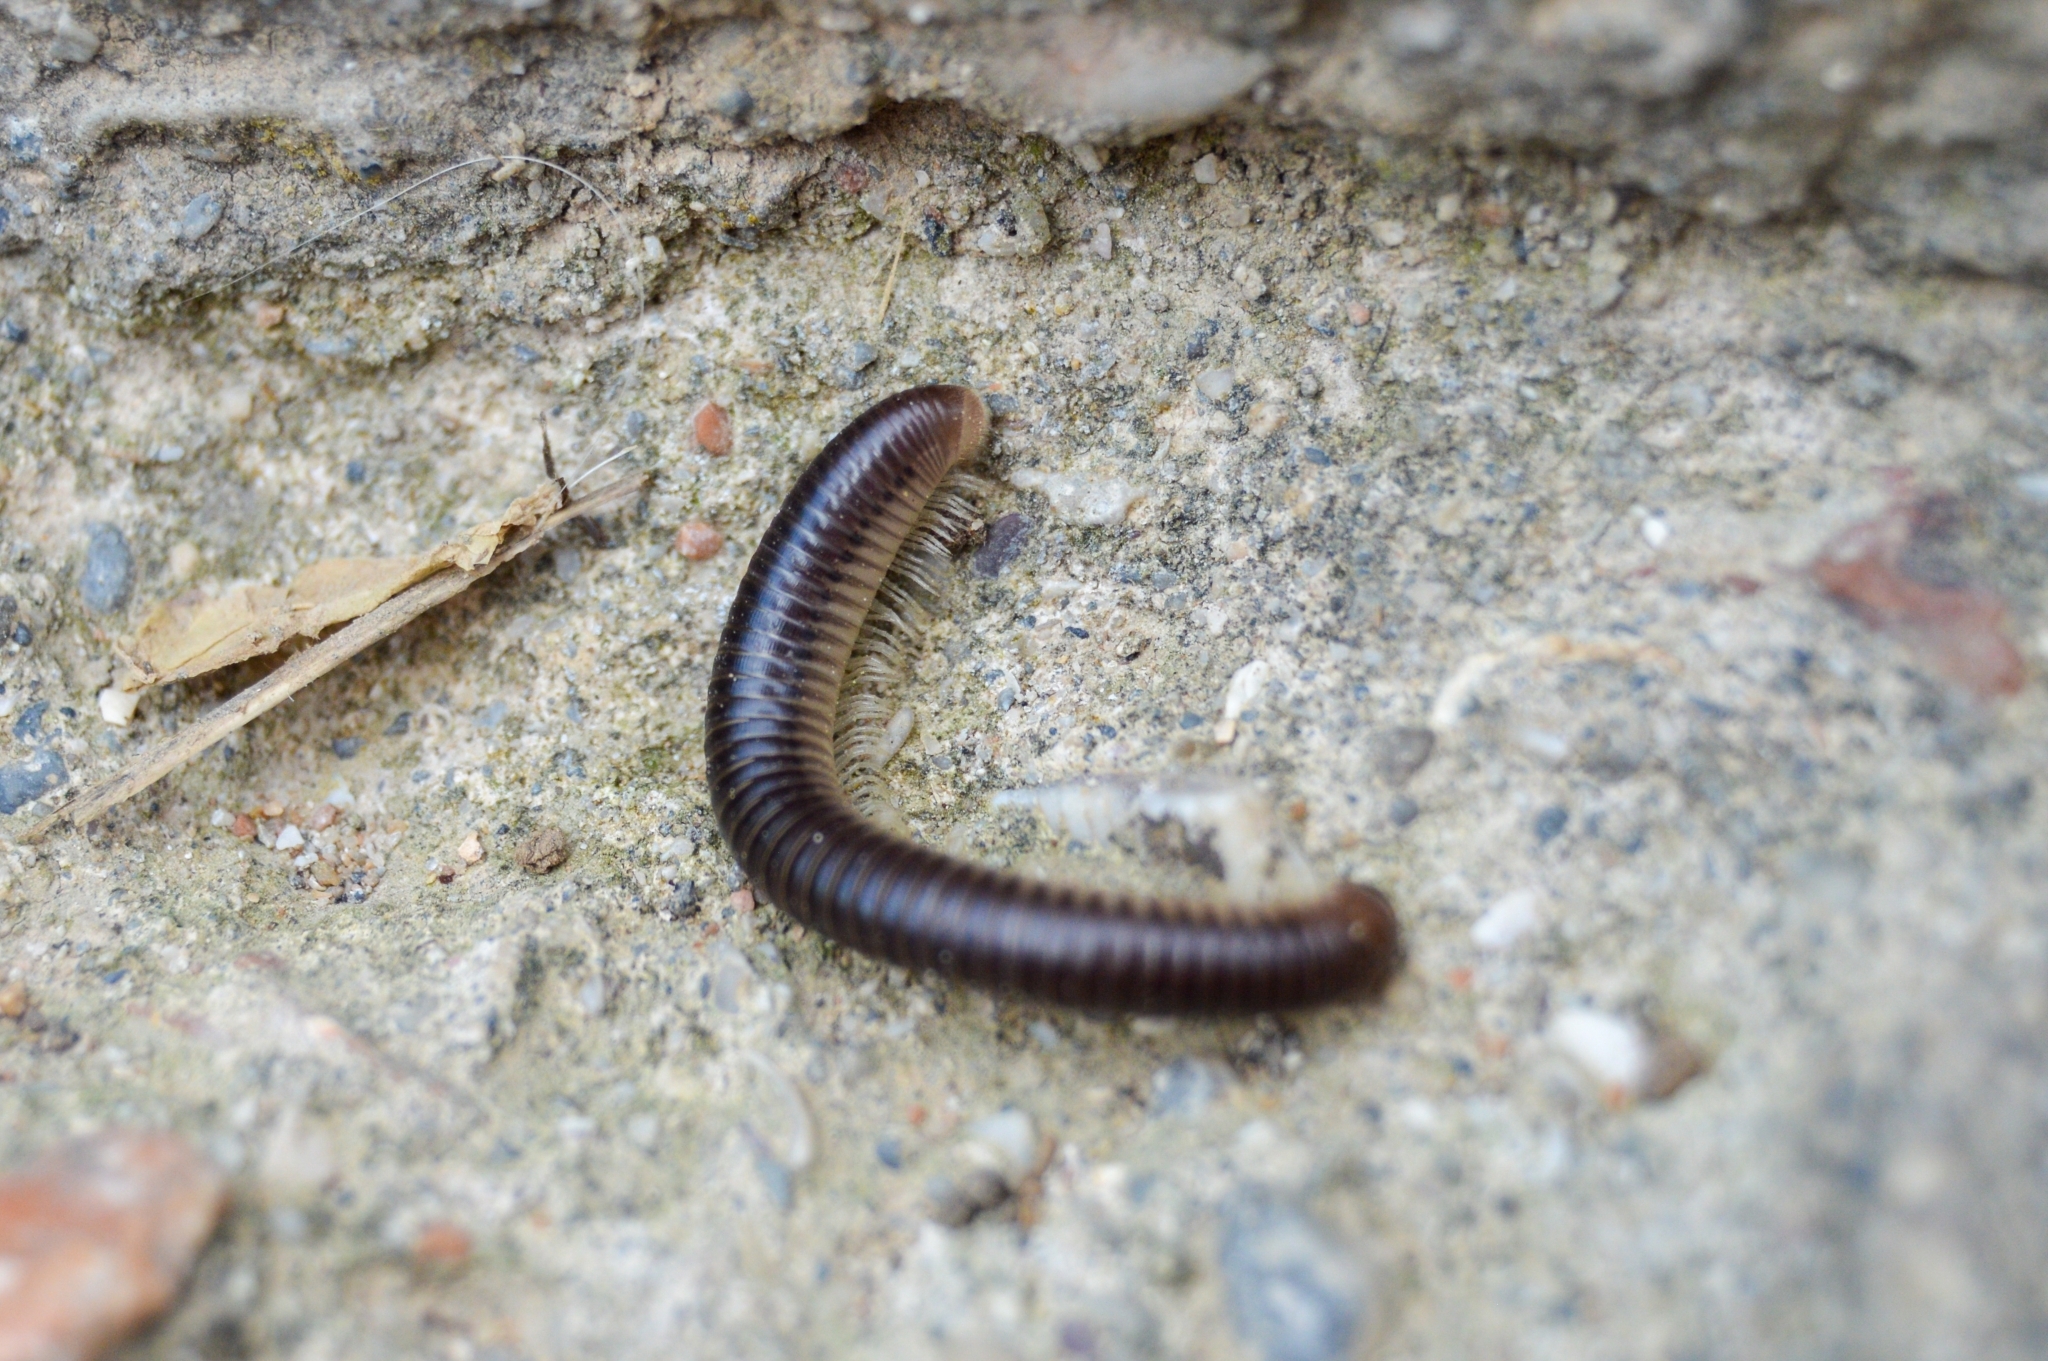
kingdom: Animalia
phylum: Arthropoda
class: Diplopoda
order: Julida
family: Julidae
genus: Pachyiulus
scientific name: Pachyiulus flavipes
